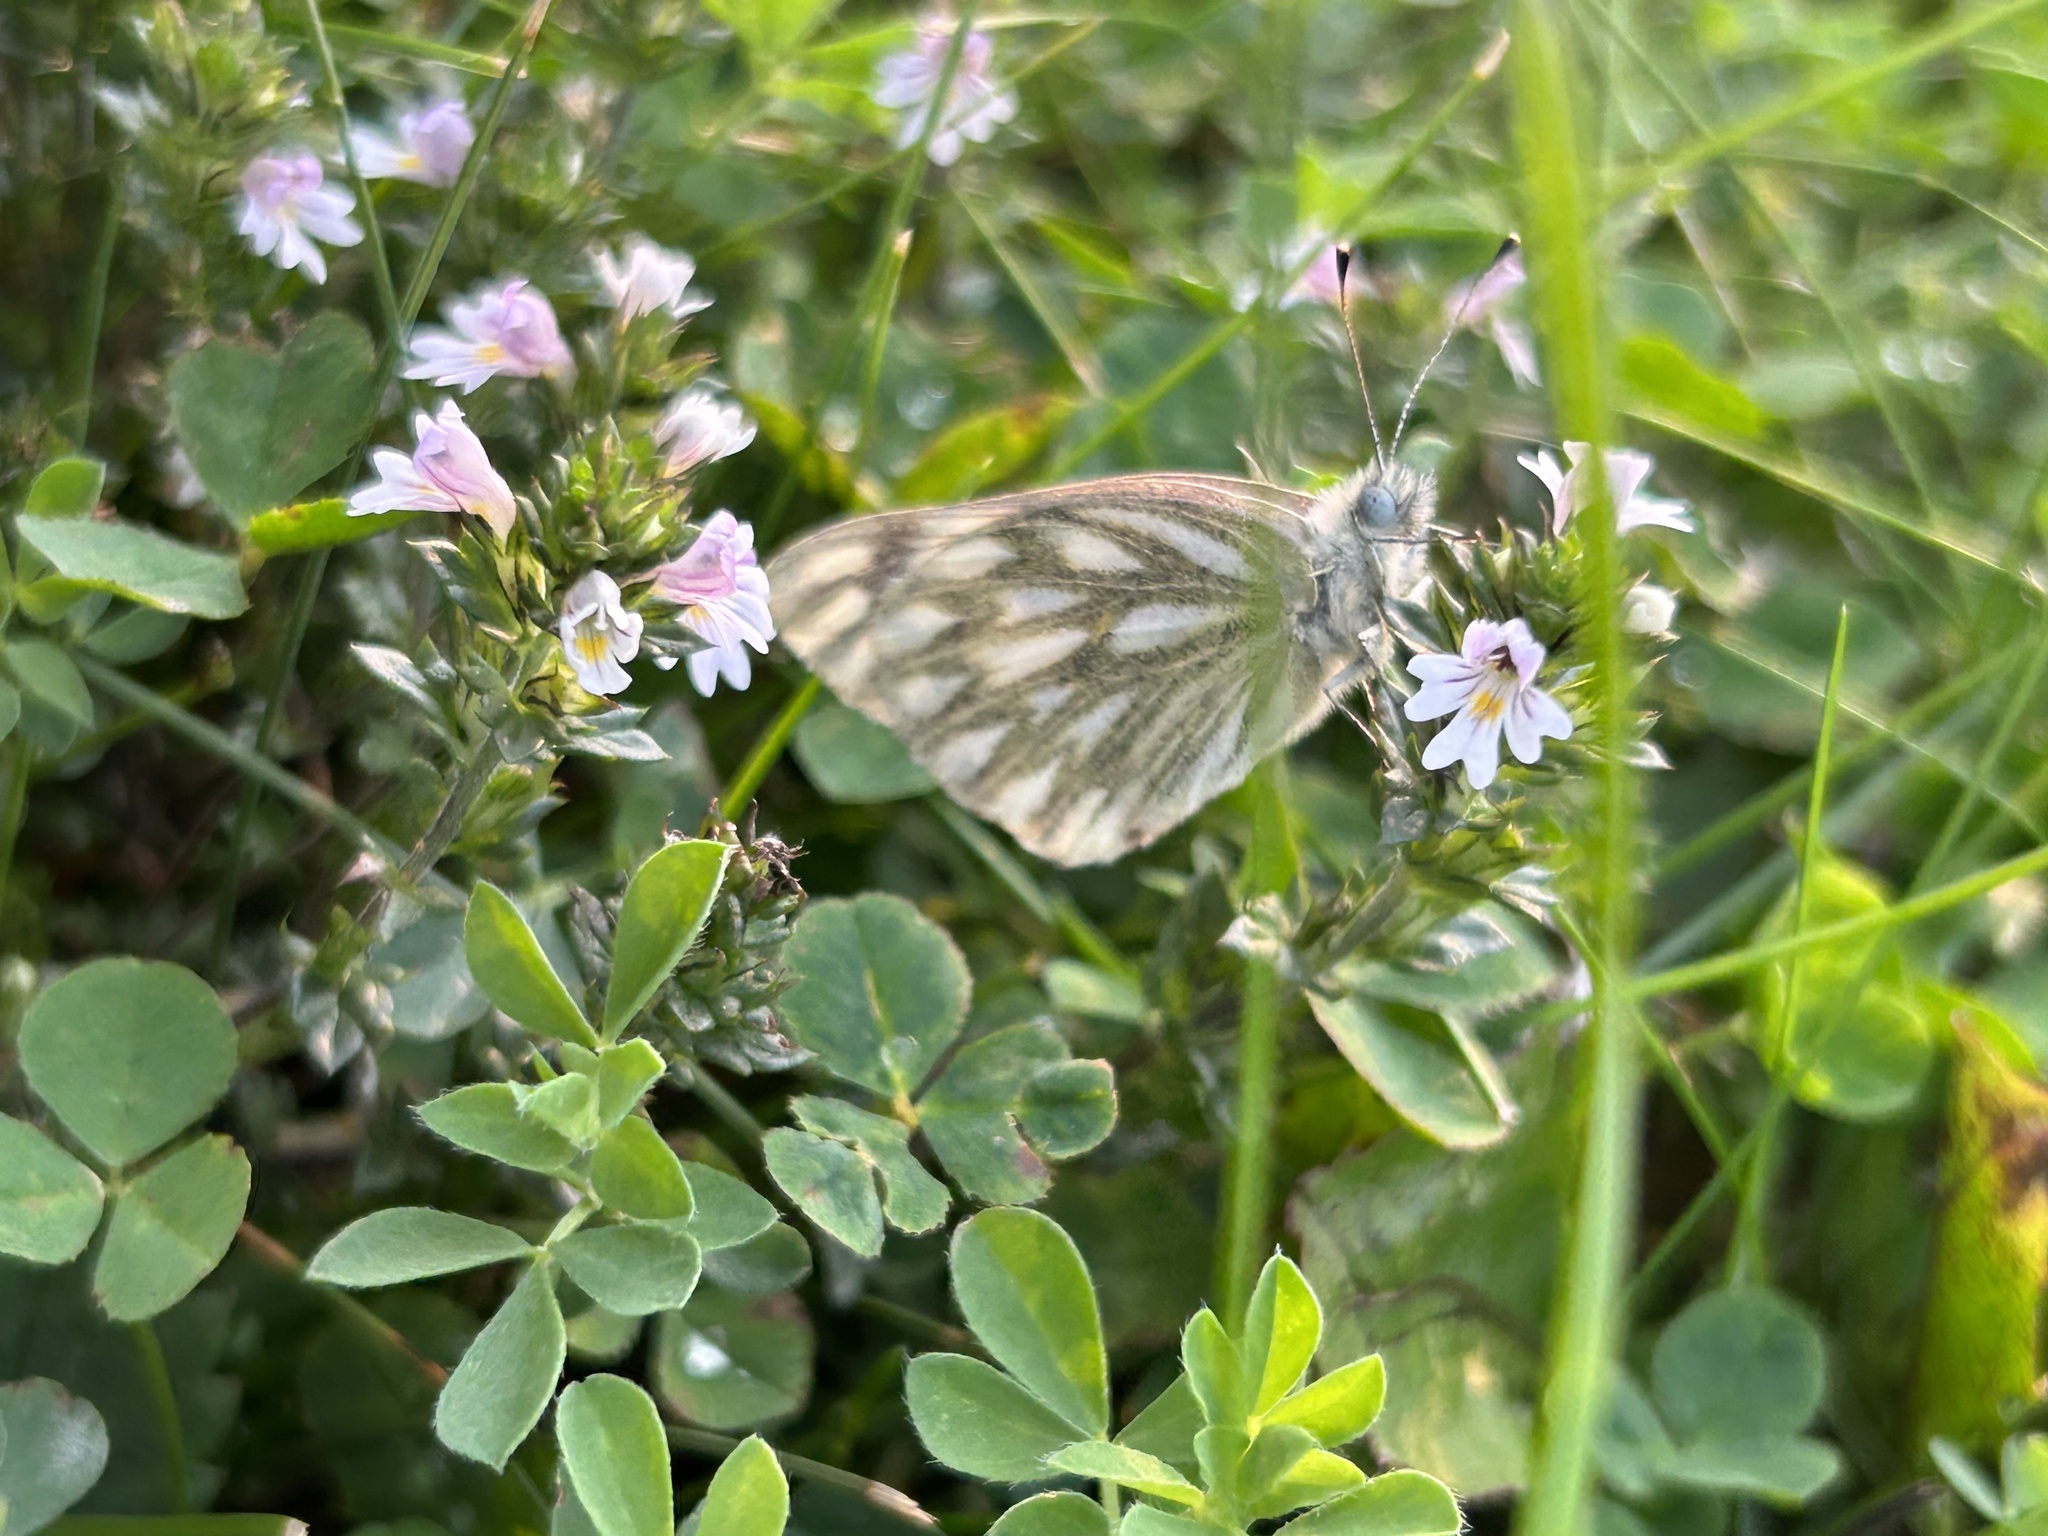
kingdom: Animalia
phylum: Arthropoda
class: Insecta
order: Lepidoptera
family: Pieridae
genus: Pontia
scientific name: Pontia occidentalis
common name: Western white
